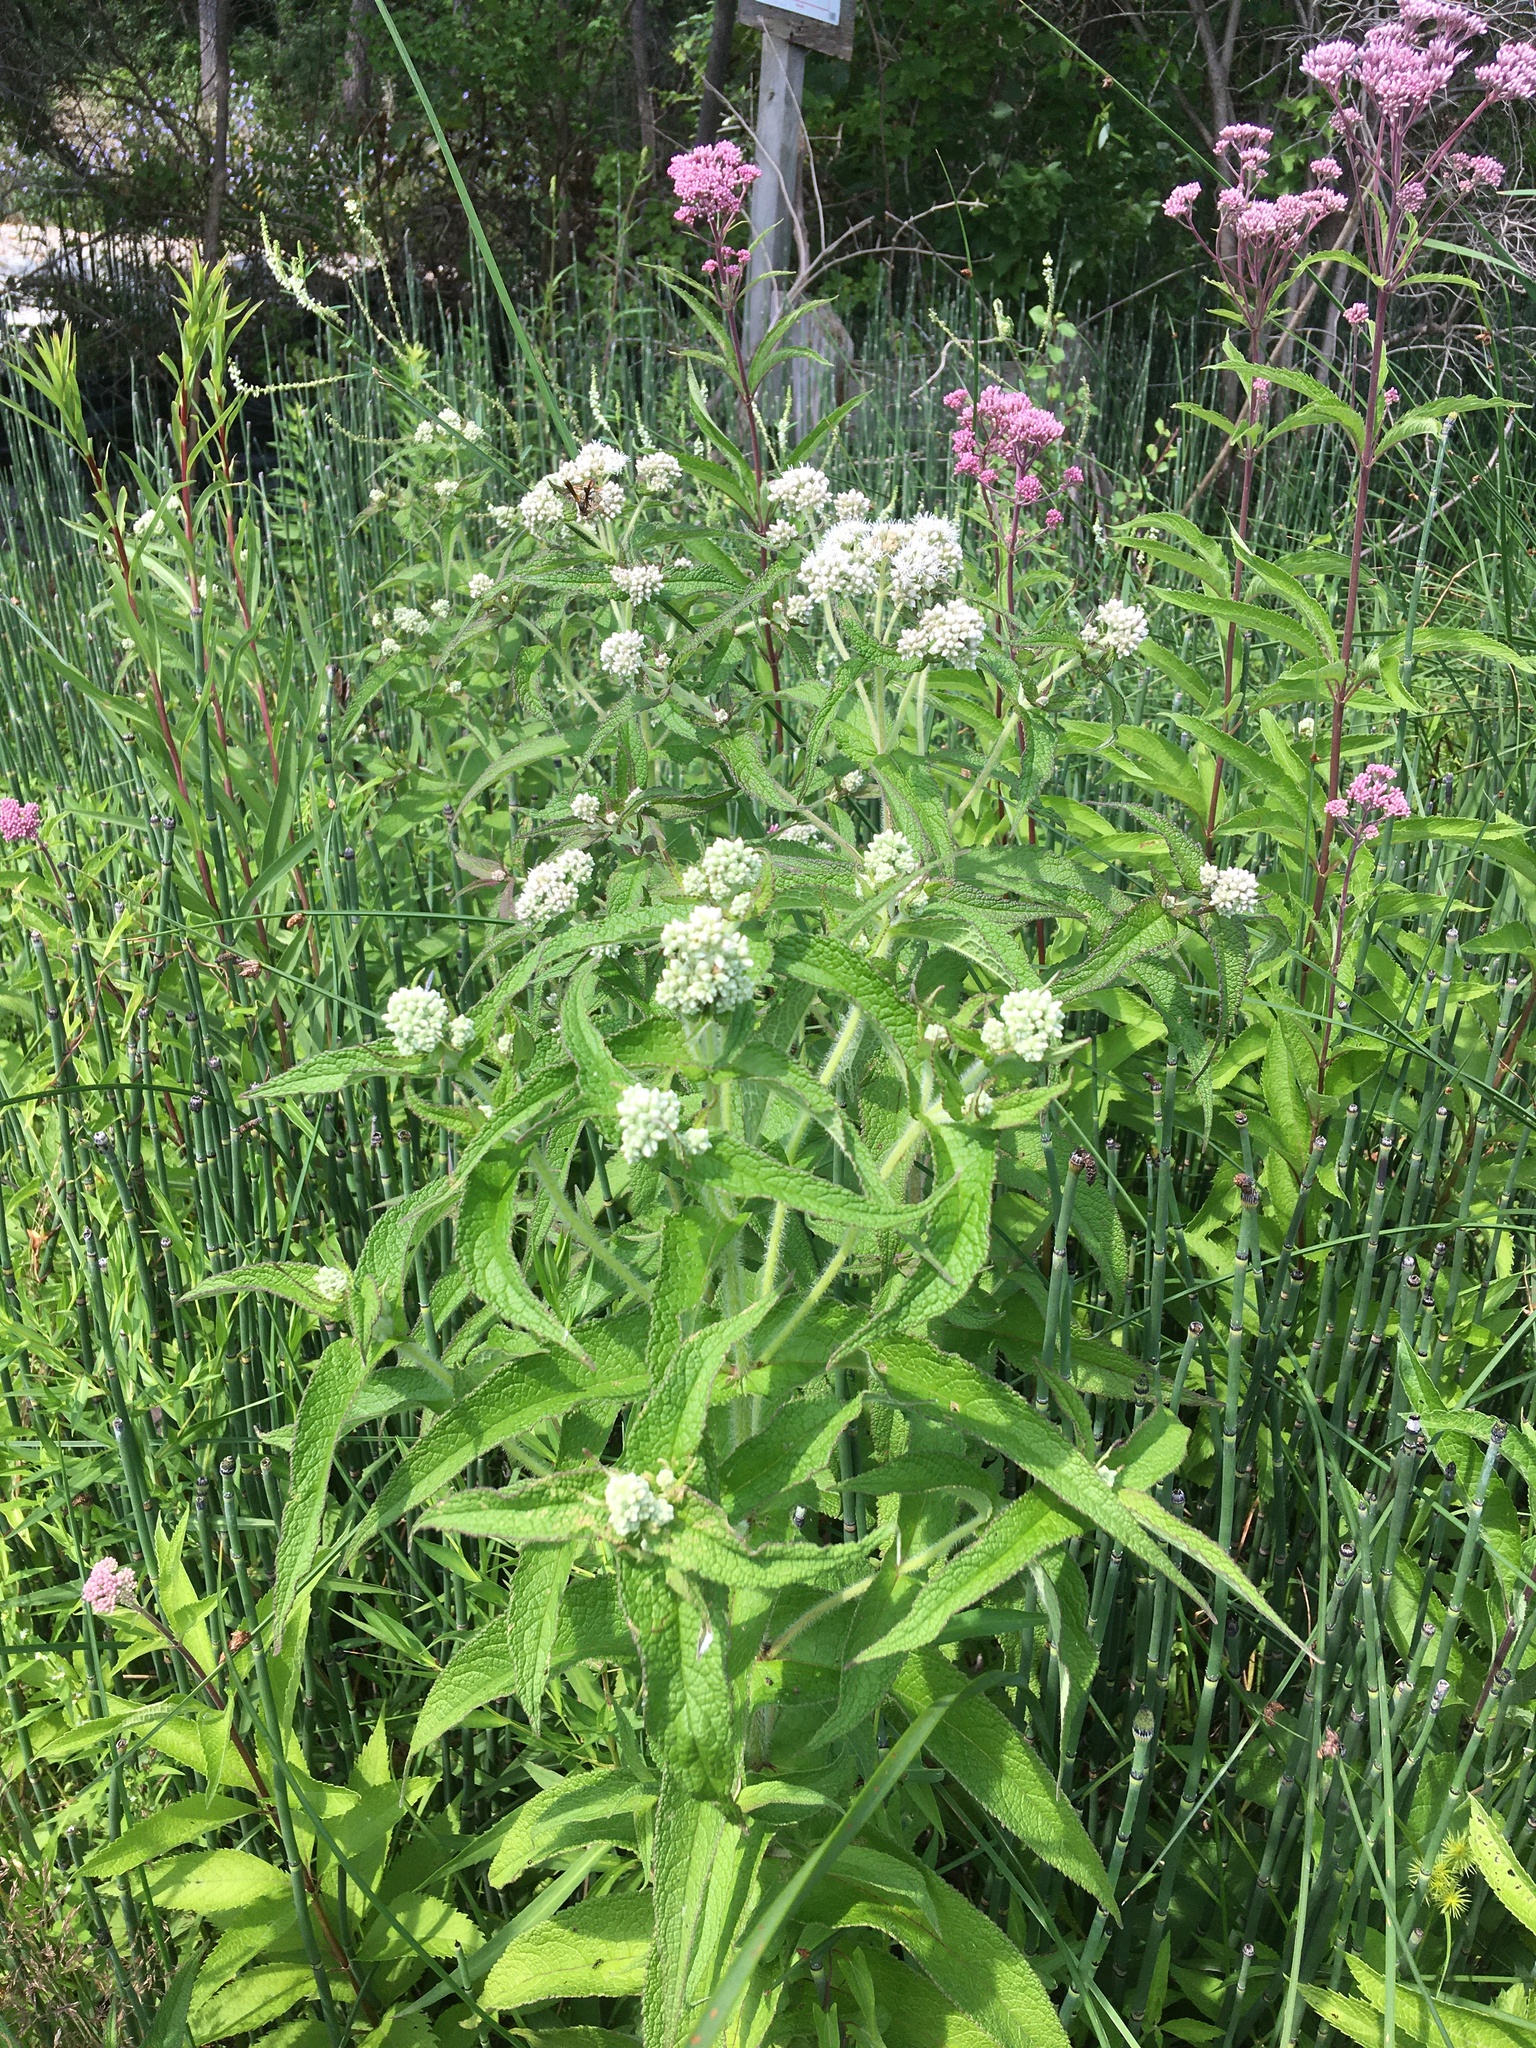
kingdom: Plantae
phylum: Tracheophyta
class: Magnoliopsida
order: Asterales
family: Asteraceae
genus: Eupatorium
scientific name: Eupatorium perfoliatum
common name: Boneset
